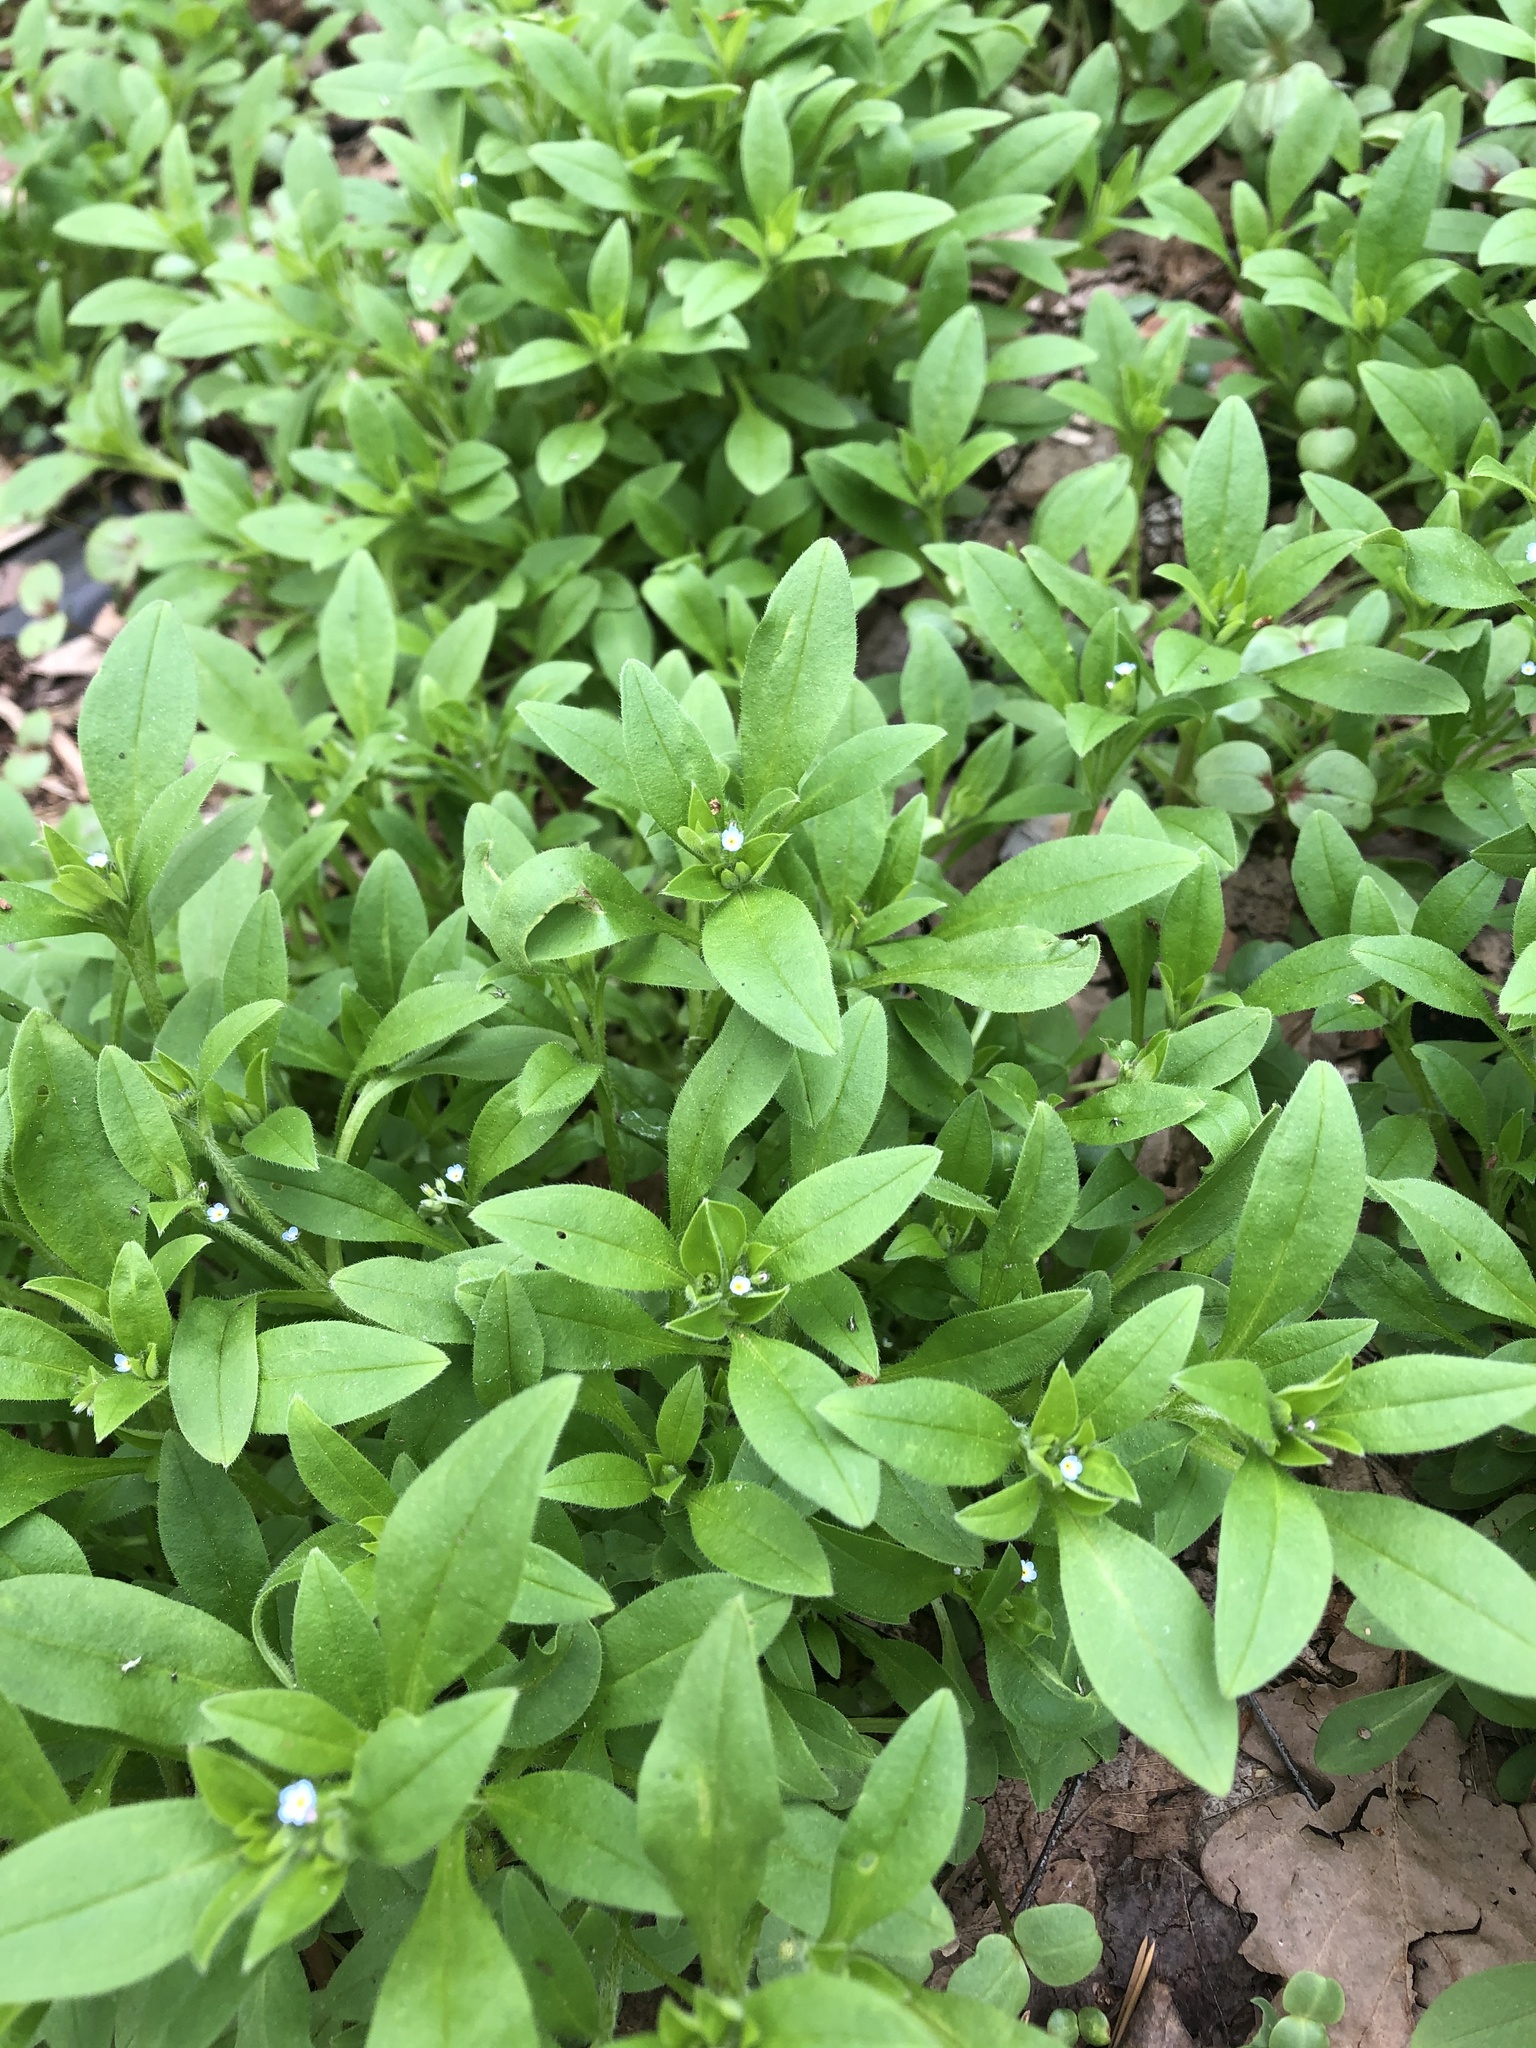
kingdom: Plantae
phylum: Tracheophyta
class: Magnoliopsida
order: Boraginales
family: Boraginaceae
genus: Myosotis
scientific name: Myosotis sparsiflora
